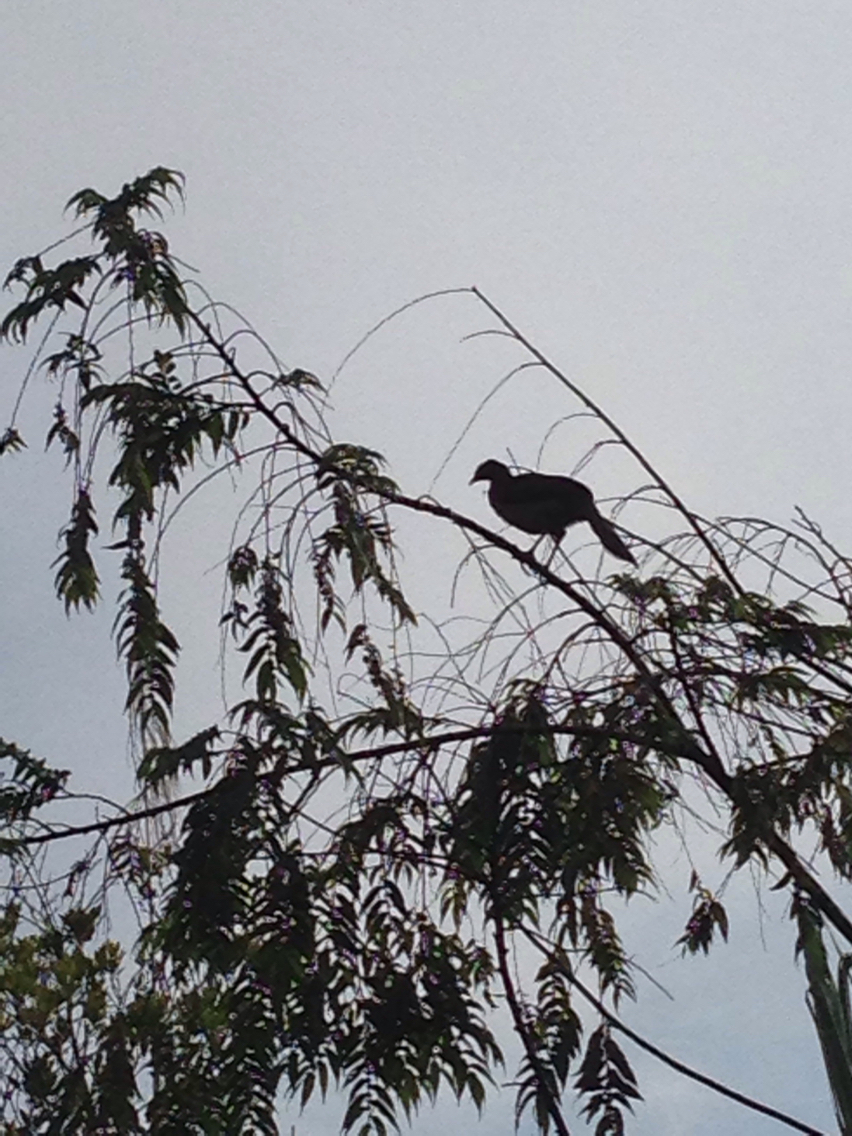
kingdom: Animalia
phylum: Chordata
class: Aves
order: Galliformes
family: Cracidae
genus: Ortalis
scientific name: Ortalis cinereiceps
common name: Grey-headed chachalaca
